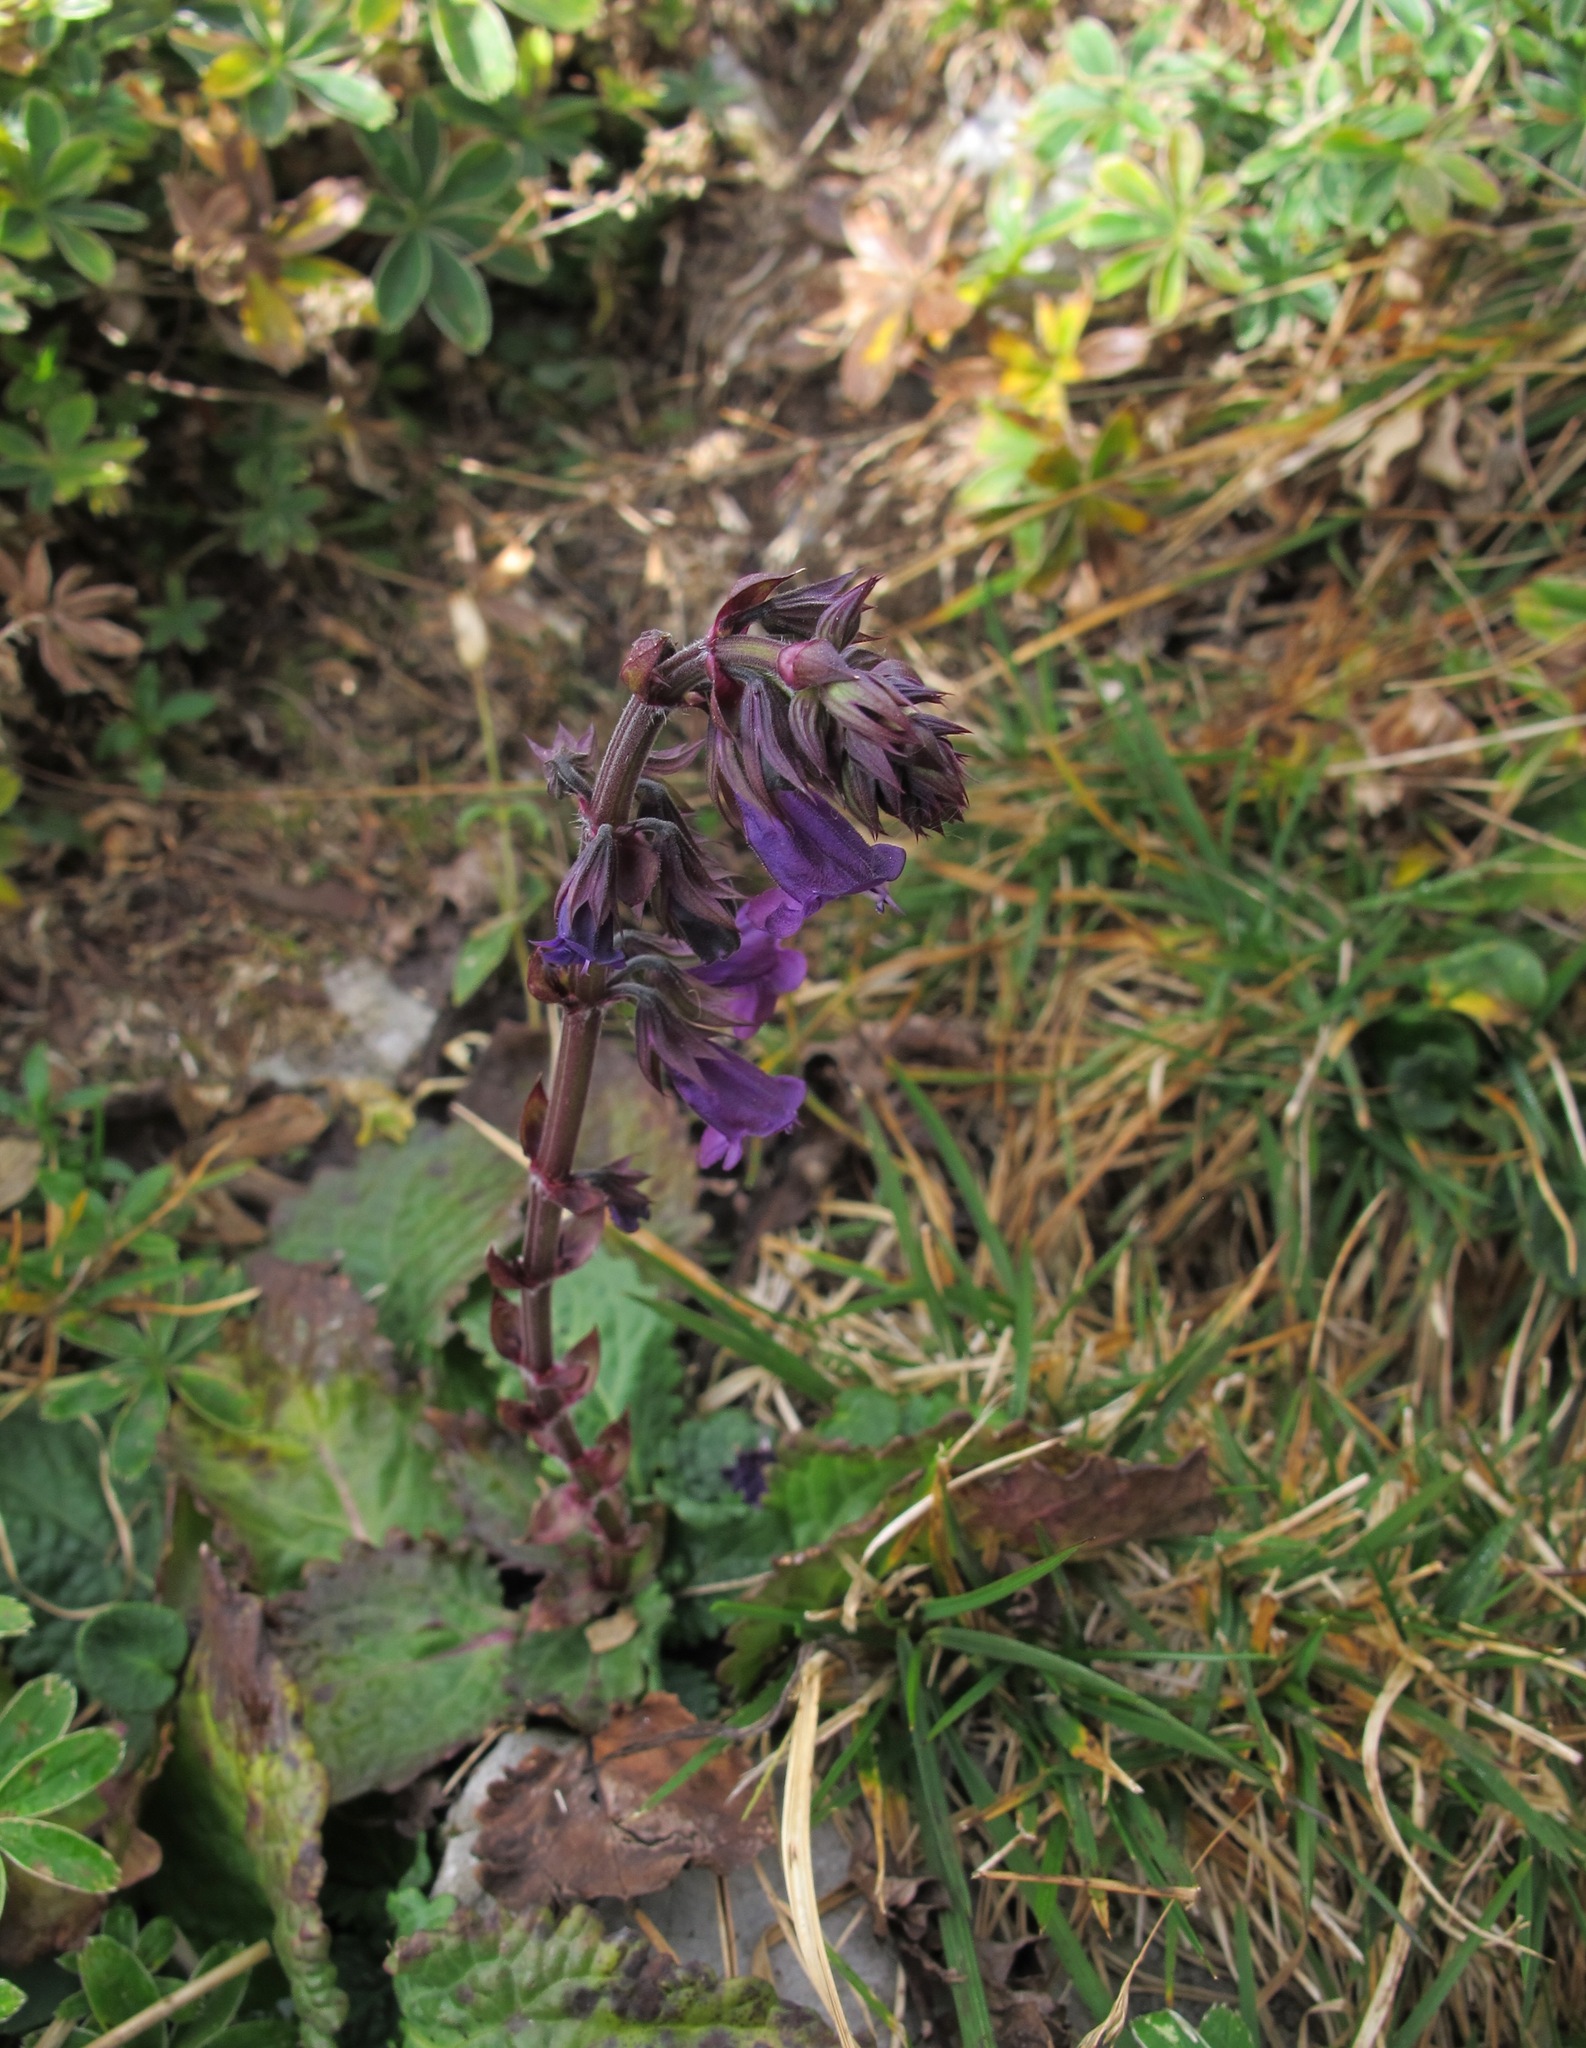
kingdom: Plantae
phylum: Tracheophyta
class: Magnoliopsida
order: Lamiales
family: Lamiaceae
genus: Horminum
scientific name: Horminum pyrenaicum
